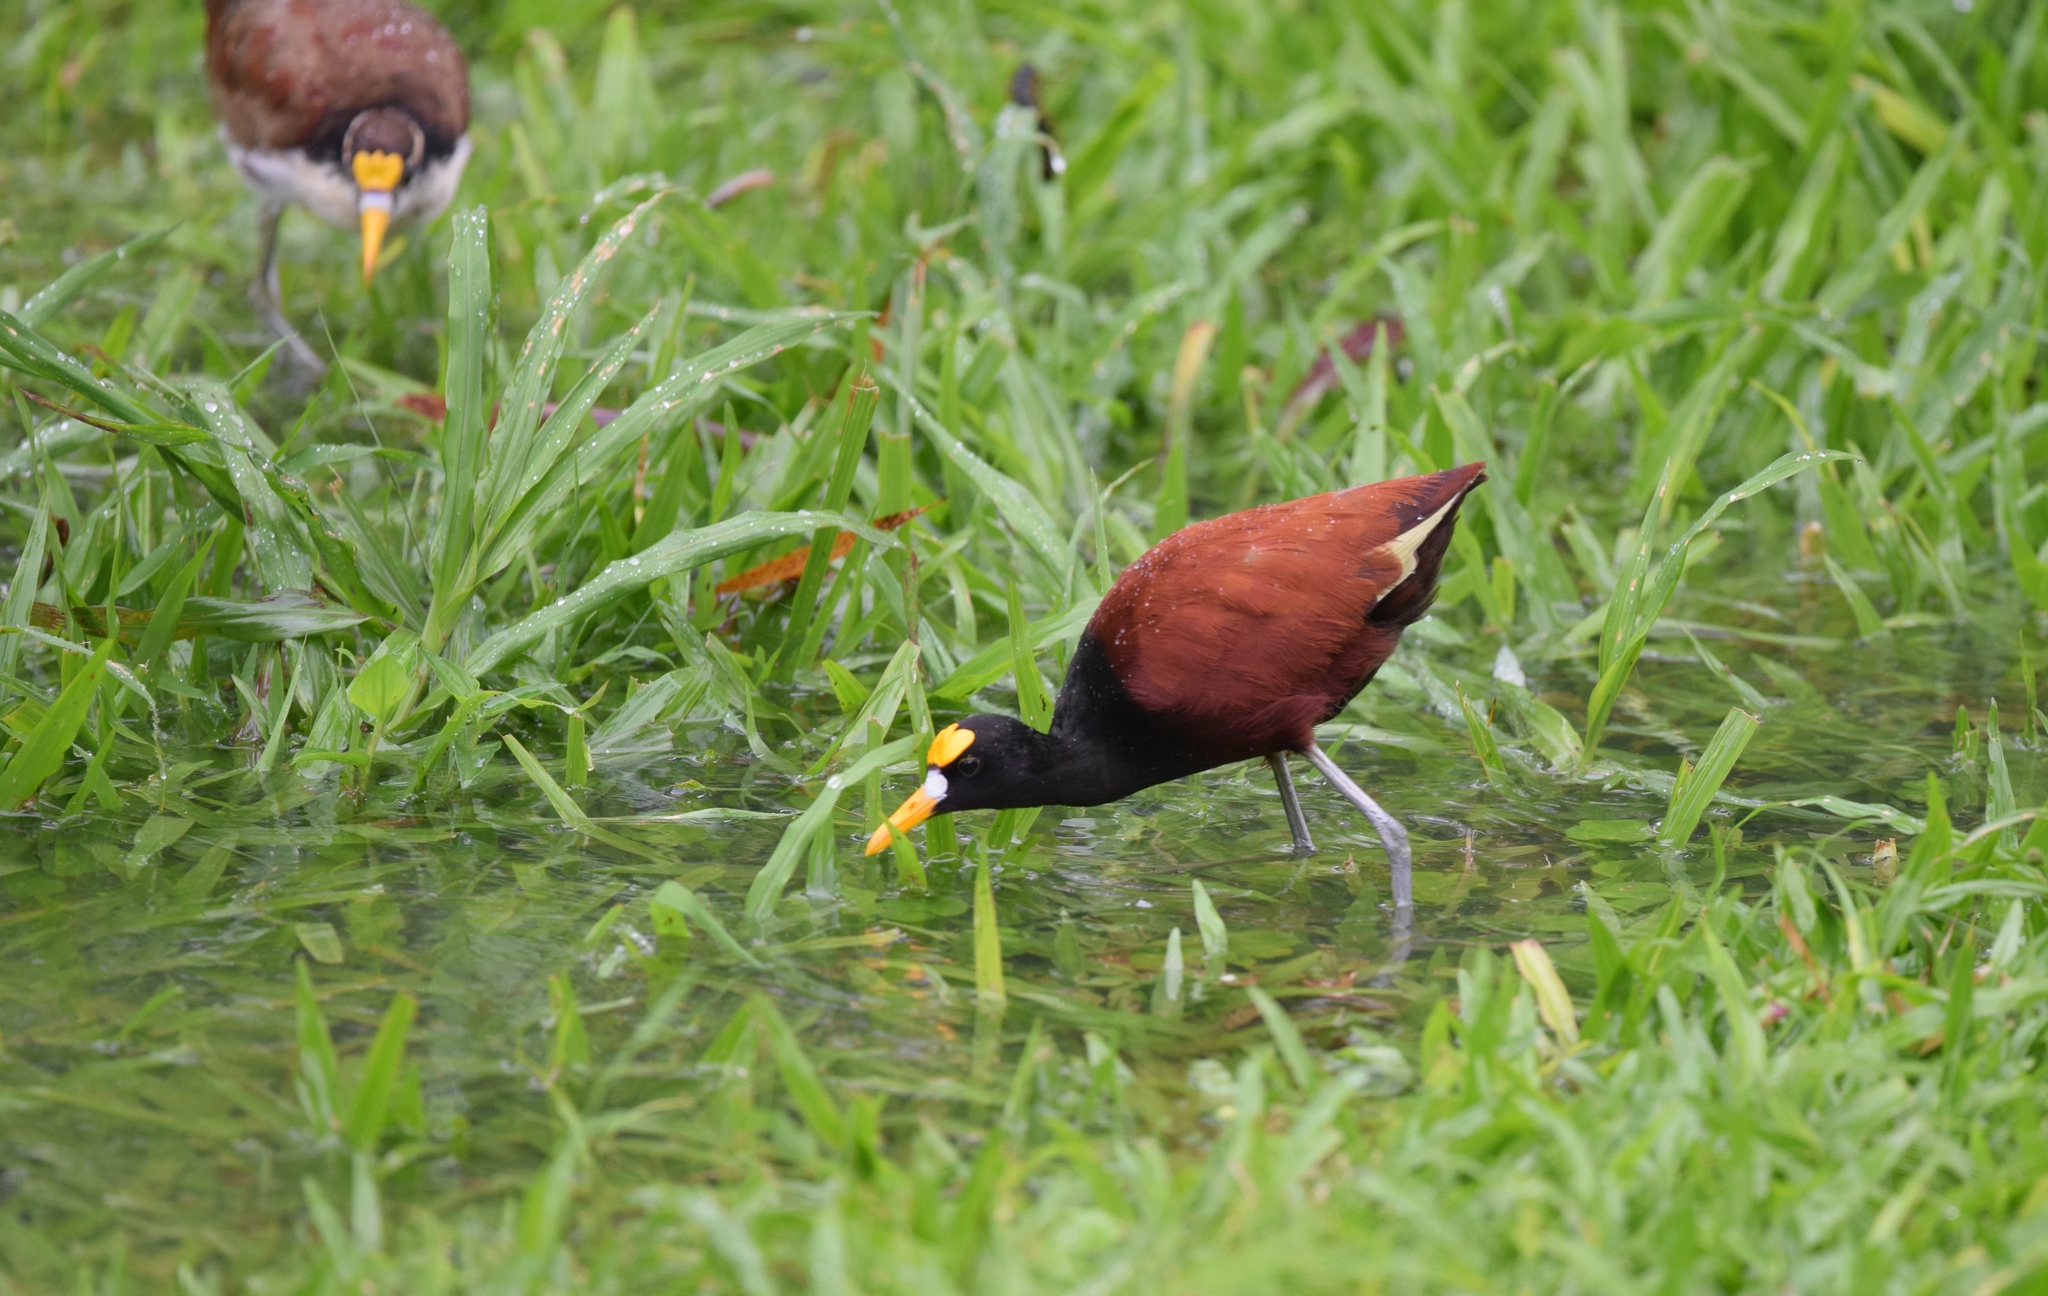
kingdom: Animalia
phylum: Chordata
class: Aves
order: Charadriiformes
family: Jacanidae
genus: Jacana
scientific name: Jacana spinosa
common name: Northern jacana
